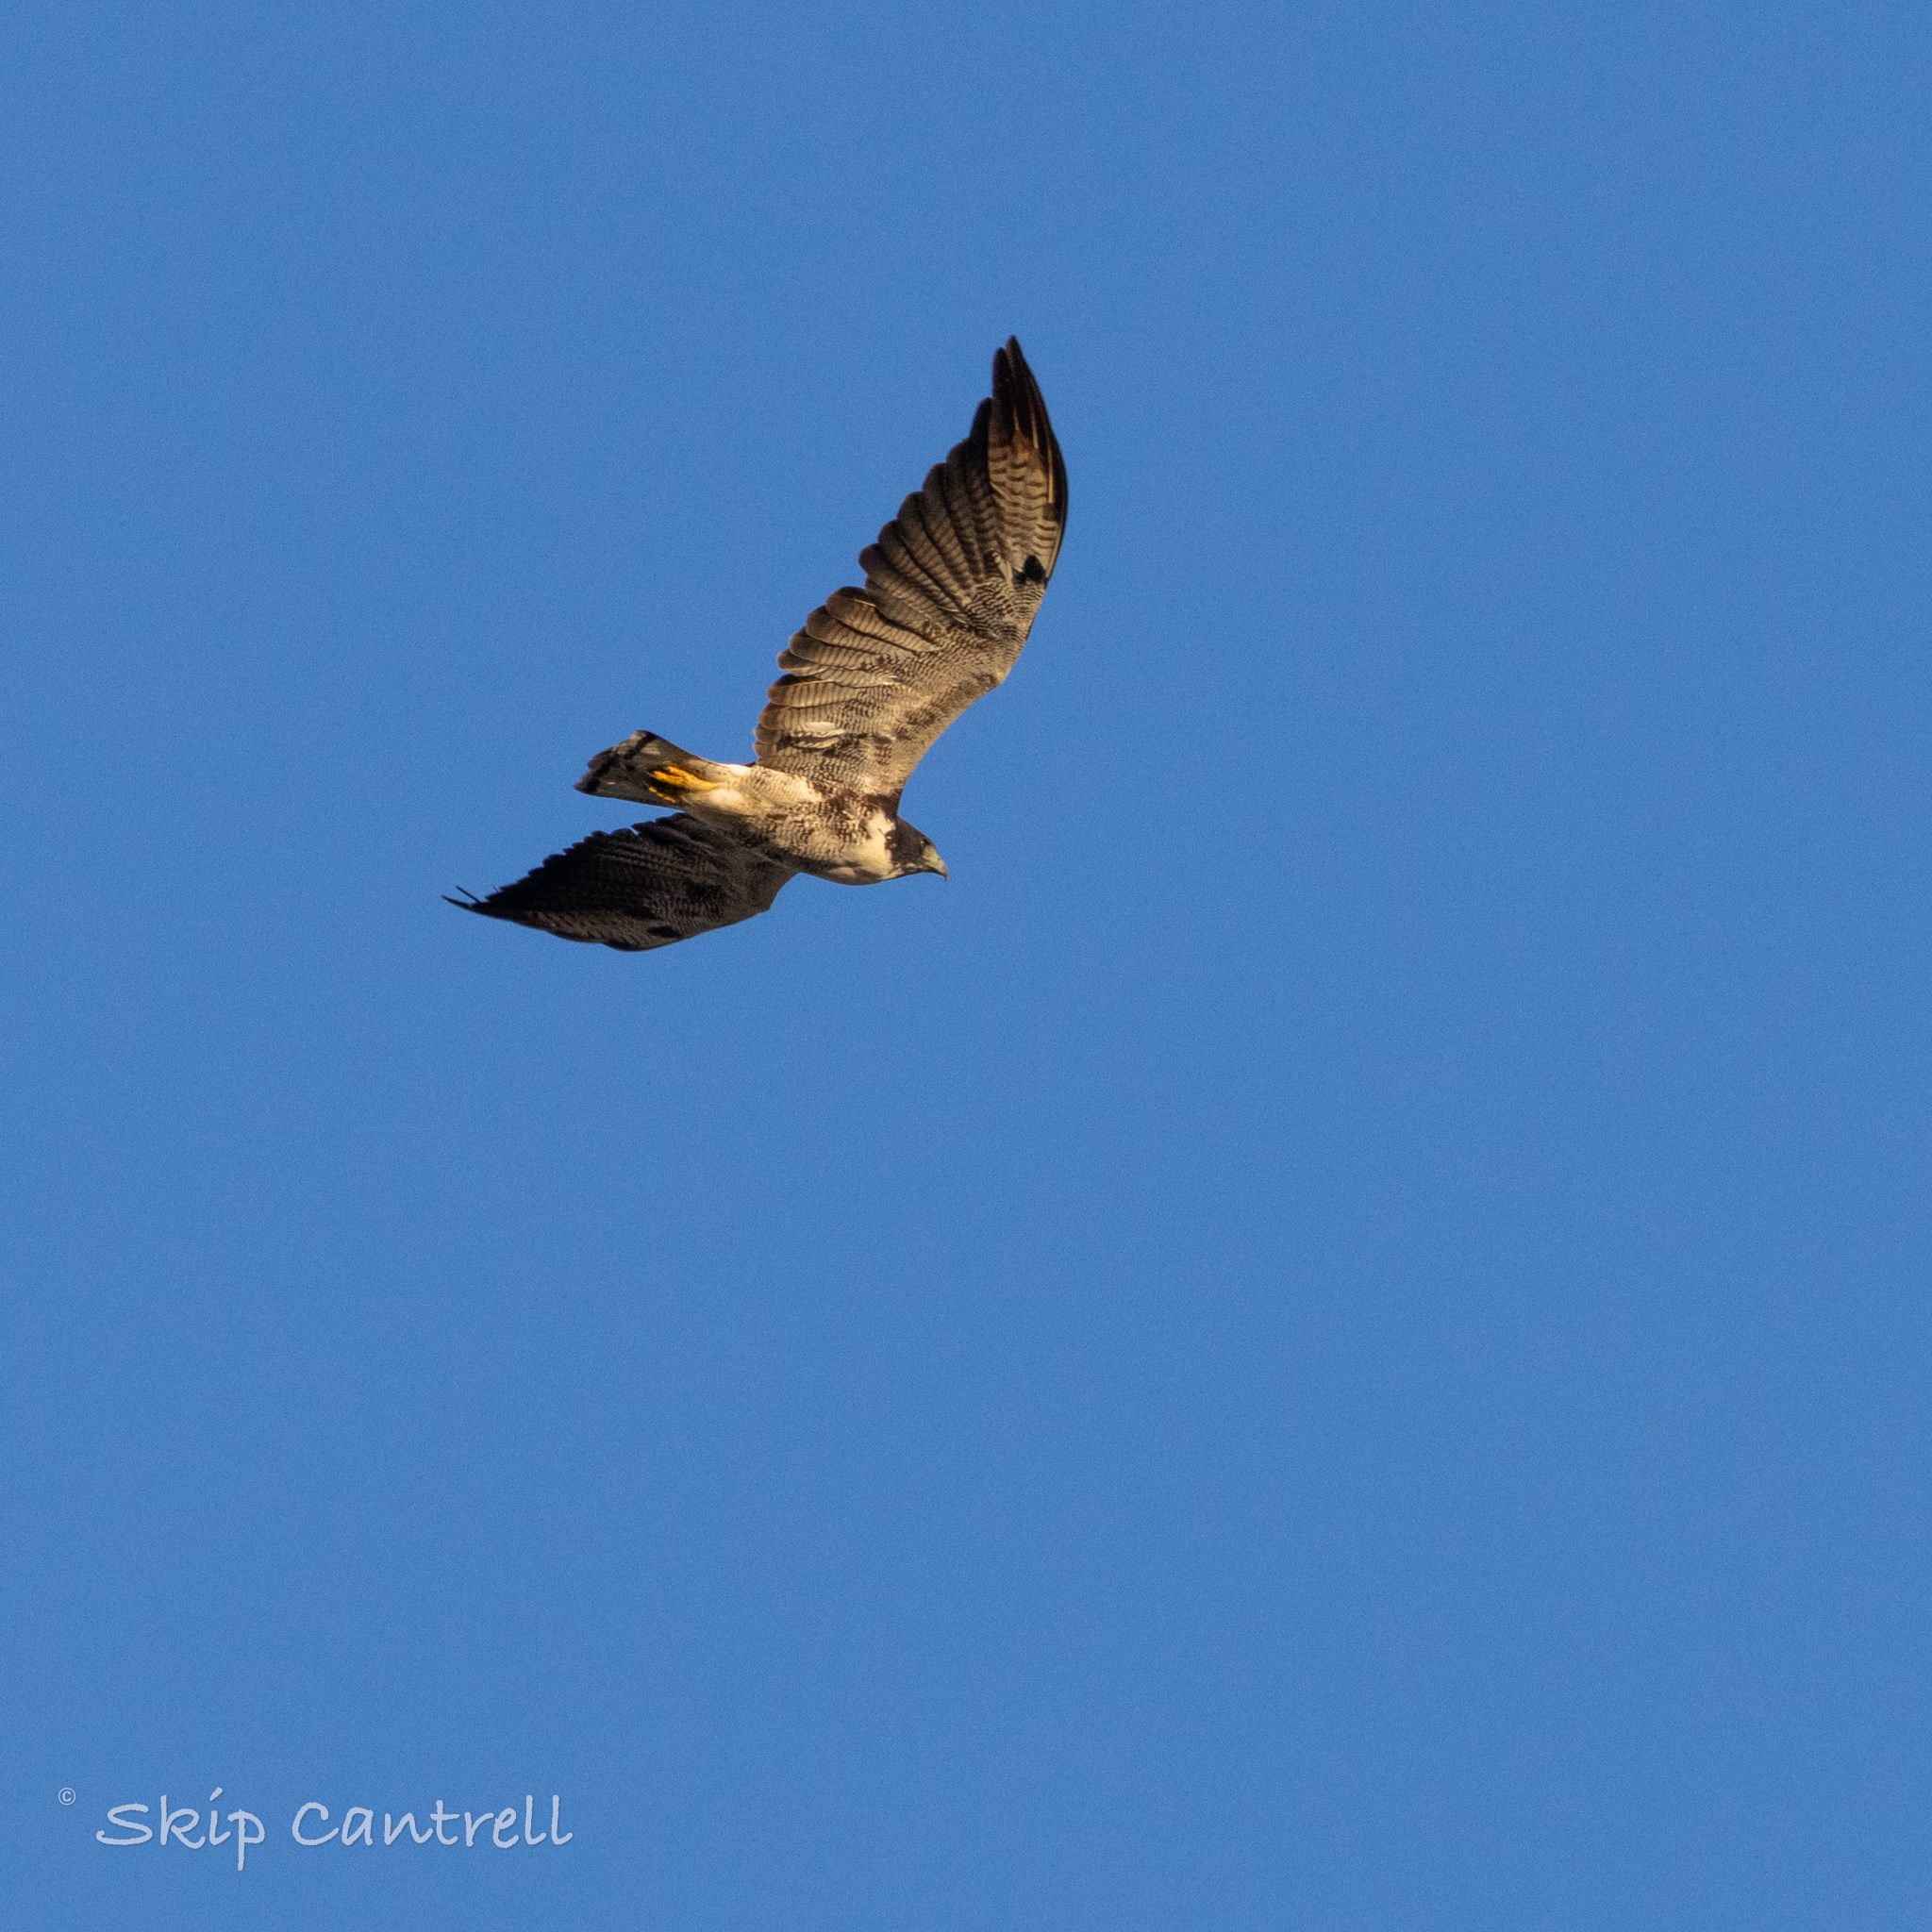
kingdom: Animalia
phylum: Chordata
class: Aves
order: Accipitriformes
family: Accipitridae
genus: Buteo
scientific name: Buteo albicaudatus
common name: White-tailed hawk
